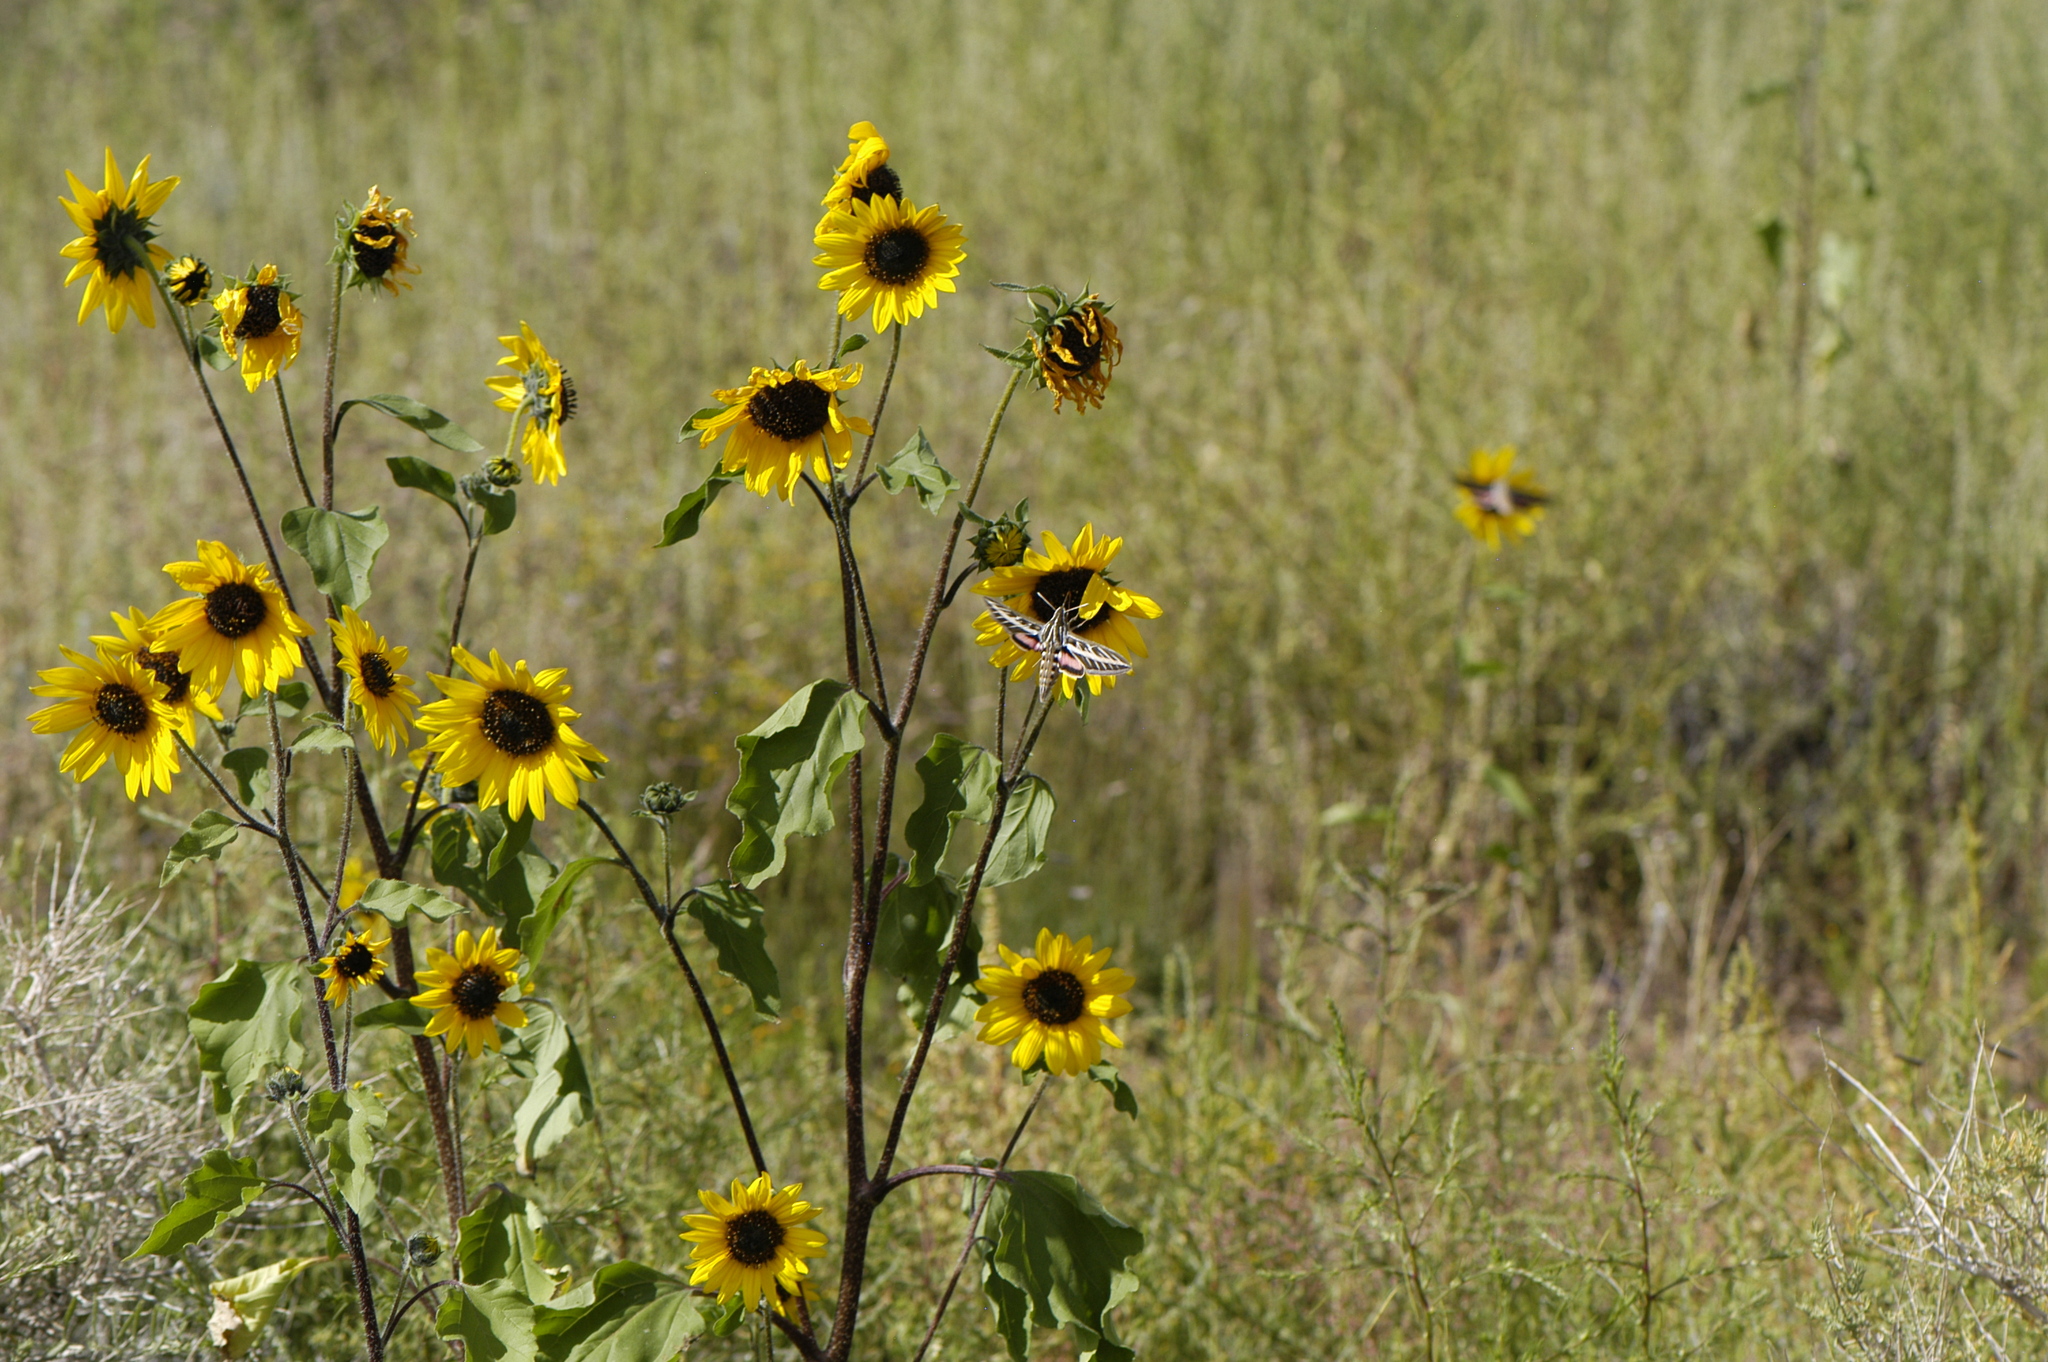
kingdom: Plantae
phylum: Tracheophyta
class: Magnoliopsida
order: Asterales
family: Asteraceae
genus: Helianthus
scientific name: Helianthus annuus
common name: Sunflower
